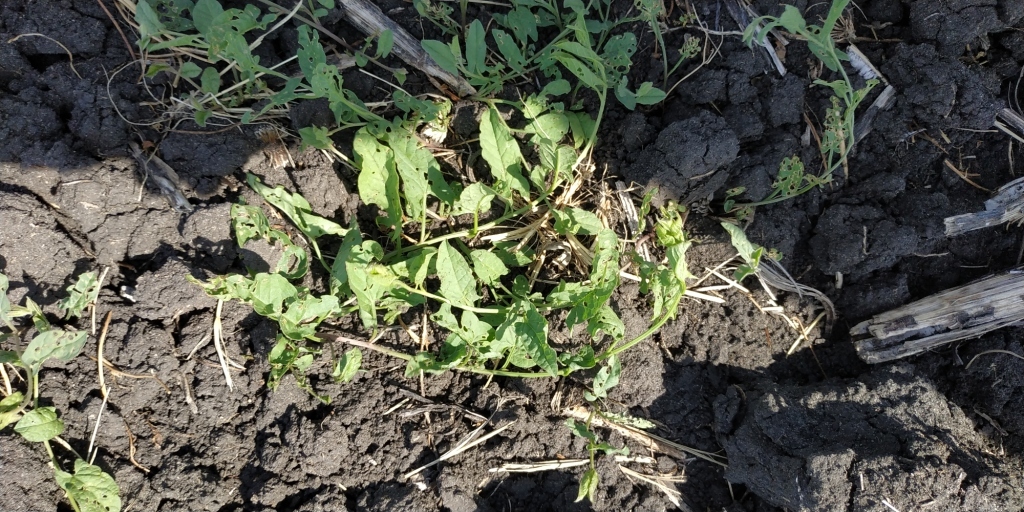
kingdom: Plantae
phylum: Tracheophyta
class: Magnoliopsida
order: Solanales
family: Convolvulaceae
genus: Convolvulus
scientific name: Convolvulus arvensis
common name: Field bindweed
